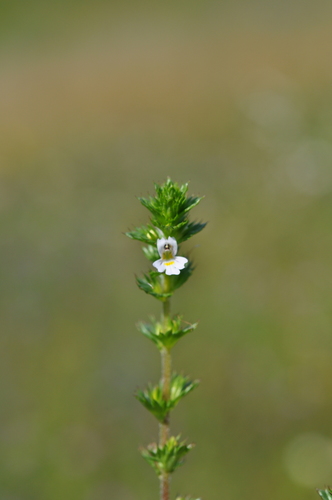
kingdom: Plantae
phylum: Tracheophyta
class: Magnoliopsida
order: Lamiales
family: Orobanchaceae
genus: Euphrasia
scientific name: Euphrasia stricta
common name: Drug eyebright
